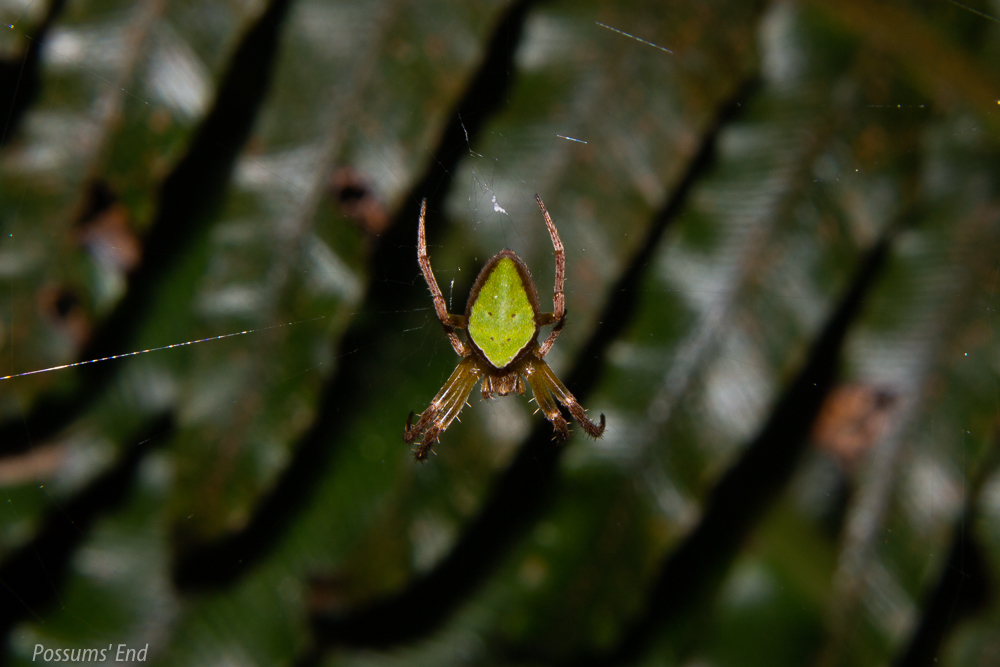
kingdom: Animalia
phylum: Arthropoda
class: Arachnida
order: Araneae
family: Araneidae
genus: Colaranea
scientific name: Colaranea viriditas
